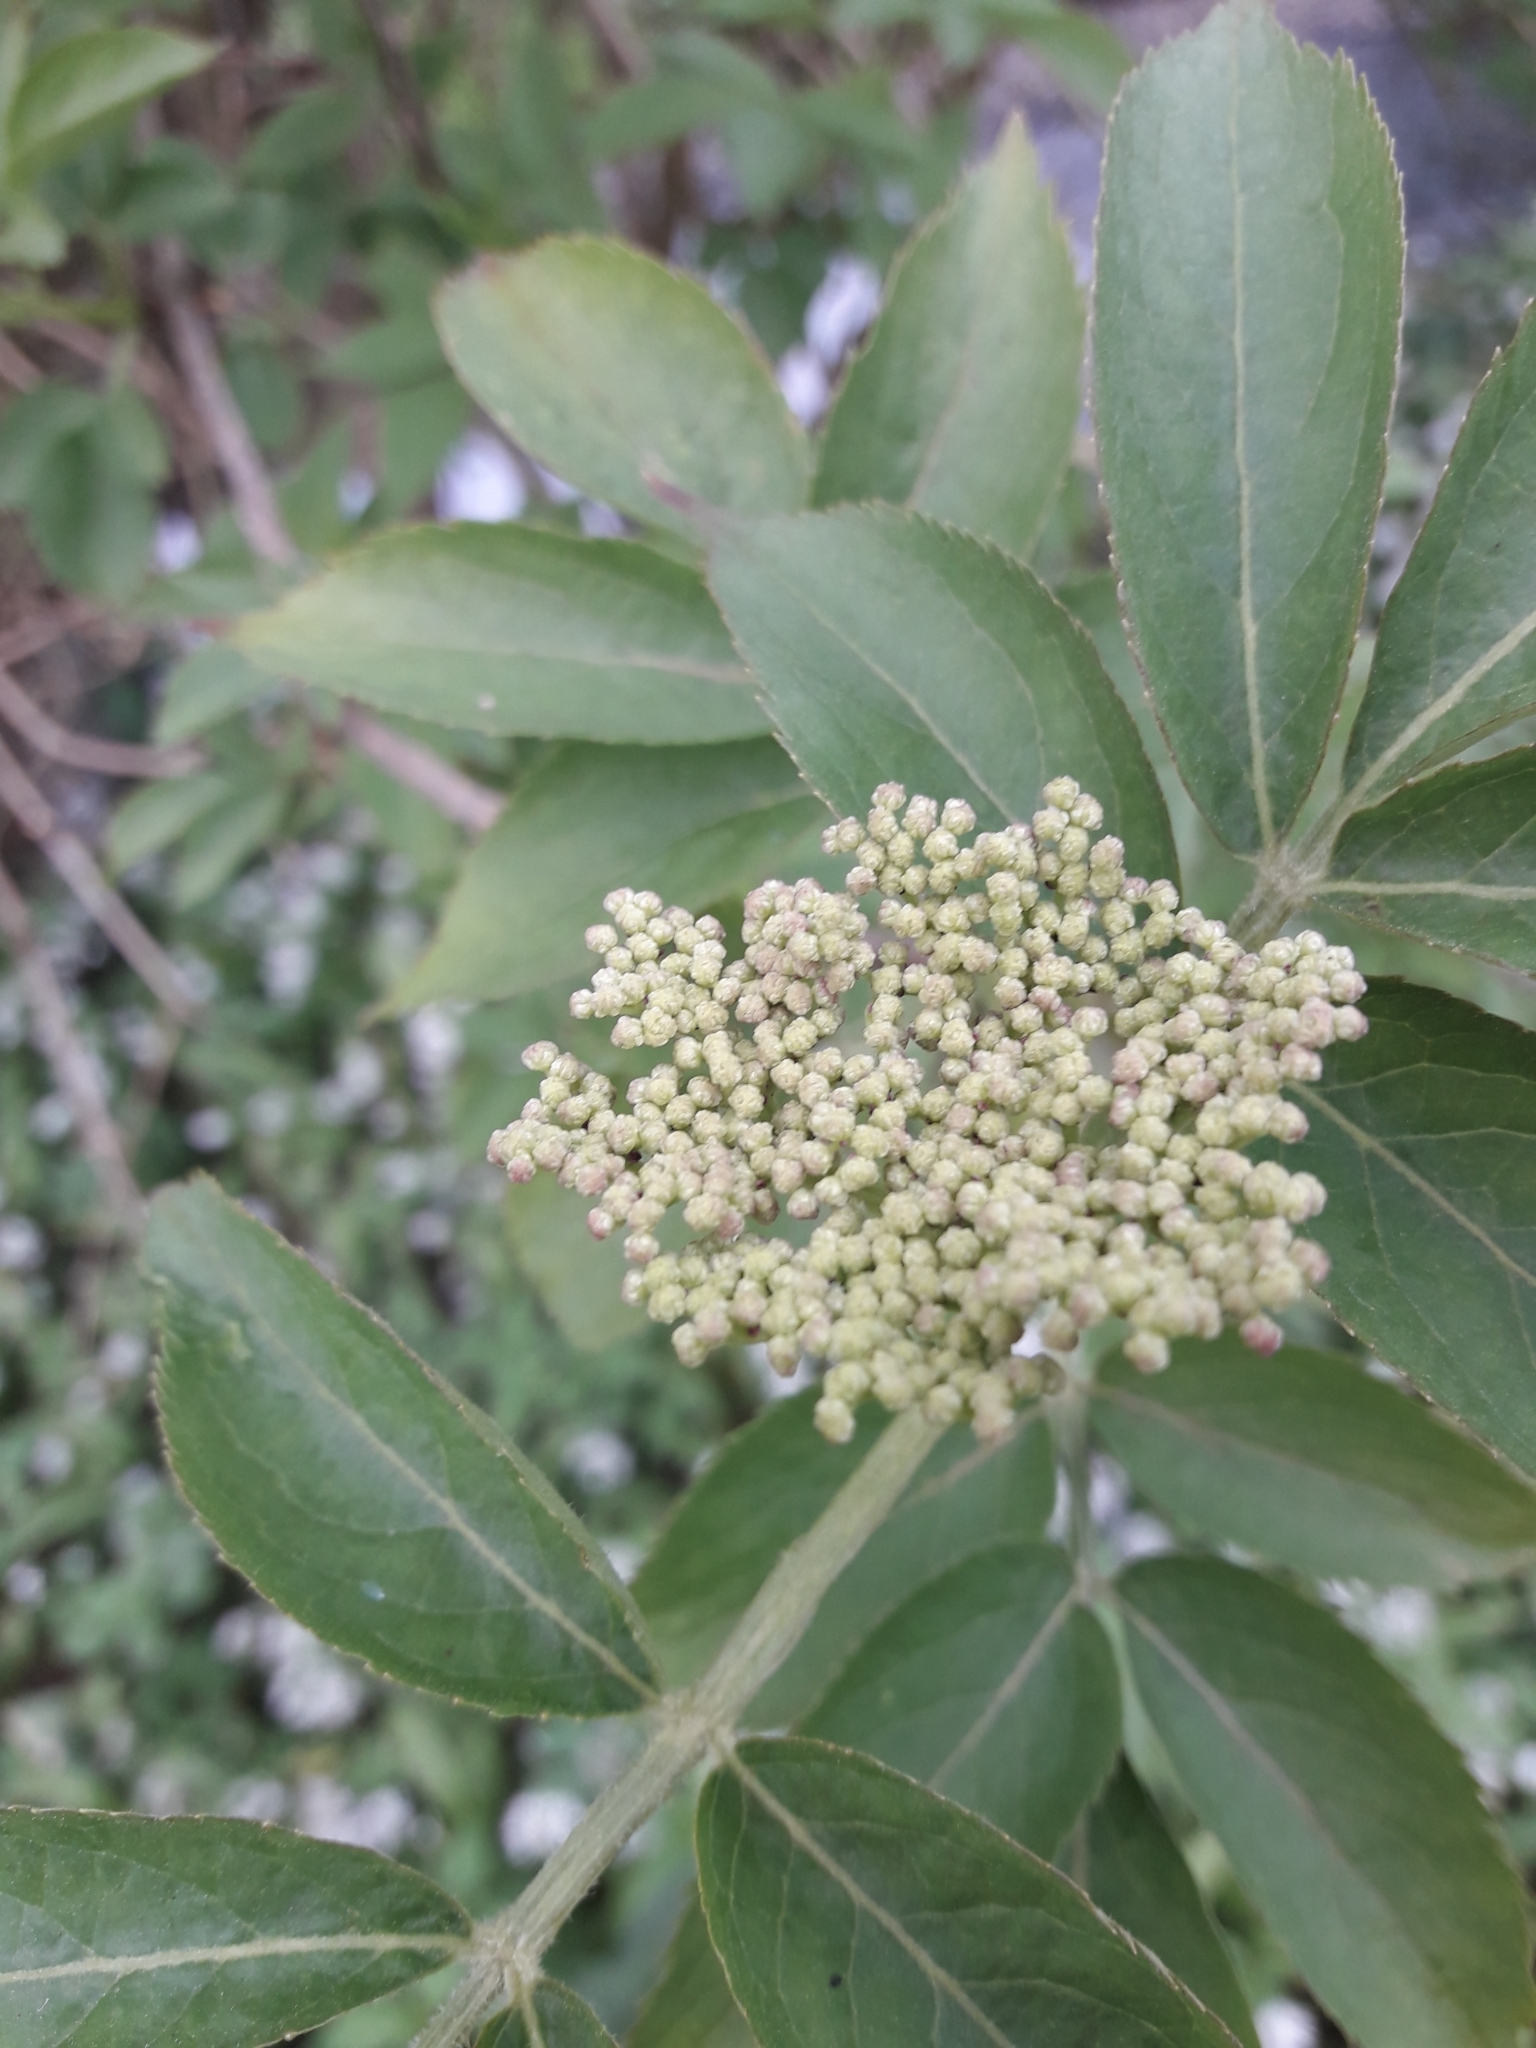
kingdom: Plantae
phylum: Tracheophyta
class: Magnoliopsida
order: Dipsacales
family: Viburnaceae
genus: Sambucus
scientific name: Sambucus nigra
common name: Elder
